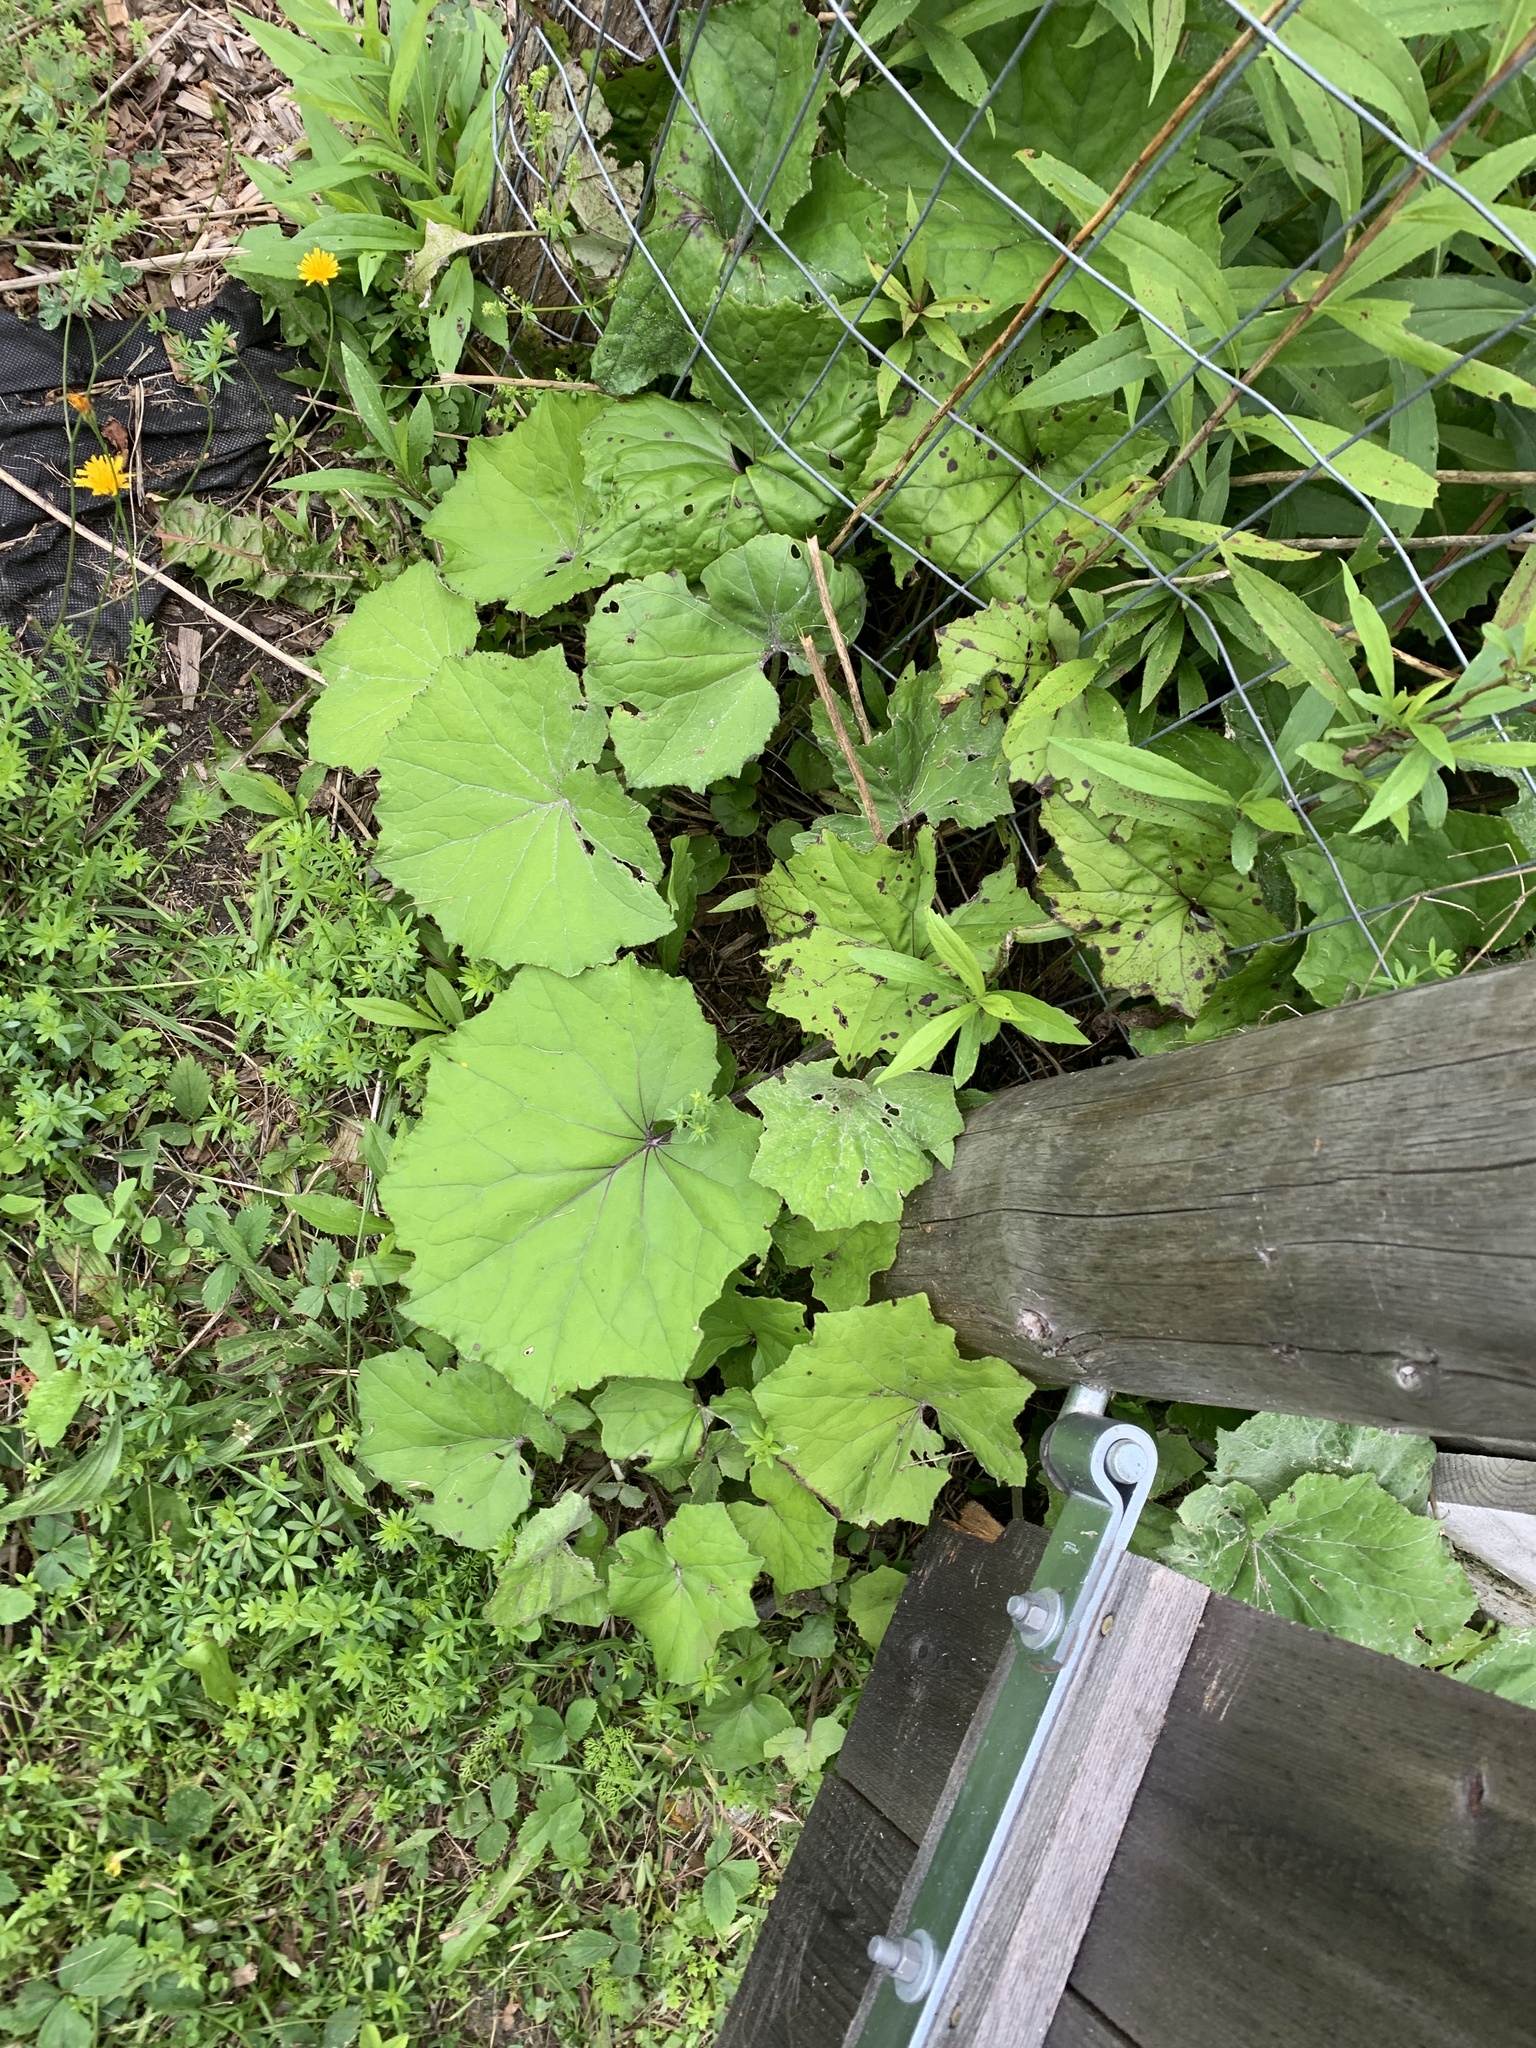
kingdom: Plantae
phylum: Tracheophyta
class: Magnoliopsida
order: Asterales
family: Asteraceae
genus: Tussilago
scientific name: Tussilago farfara
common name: Coltsfoot
